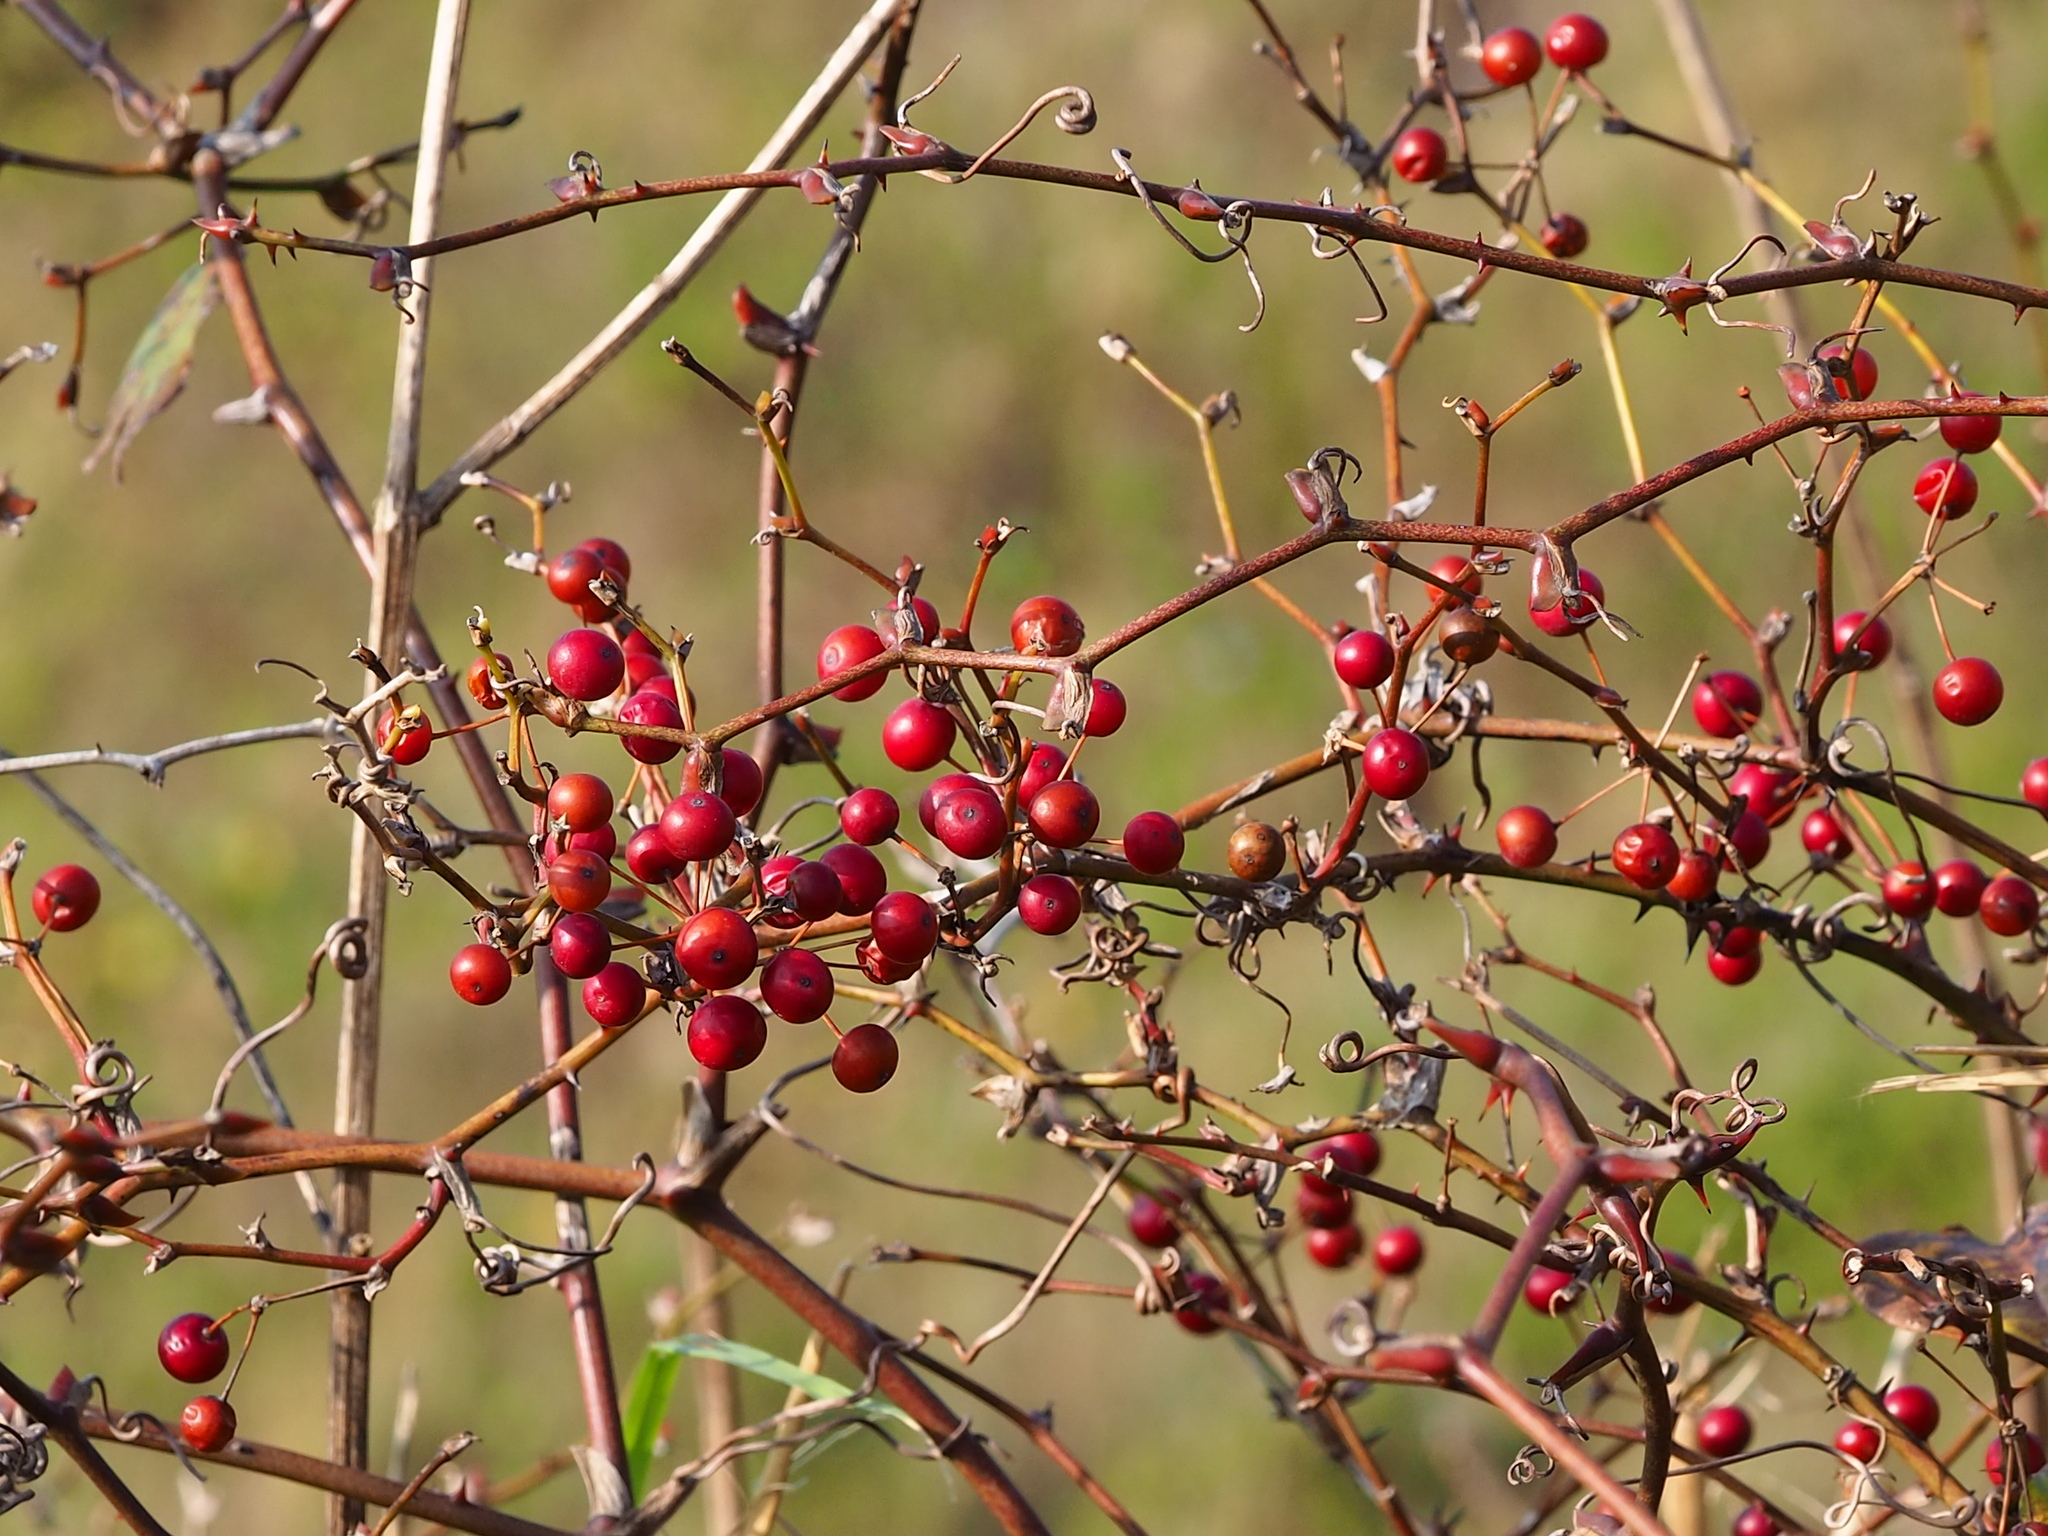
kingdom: Plantae
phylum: Tracheophyta
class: Liliopsida
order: Liliales
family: Smilacaceae
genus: Smilax
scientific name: Smilax china
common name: Chinaroot
